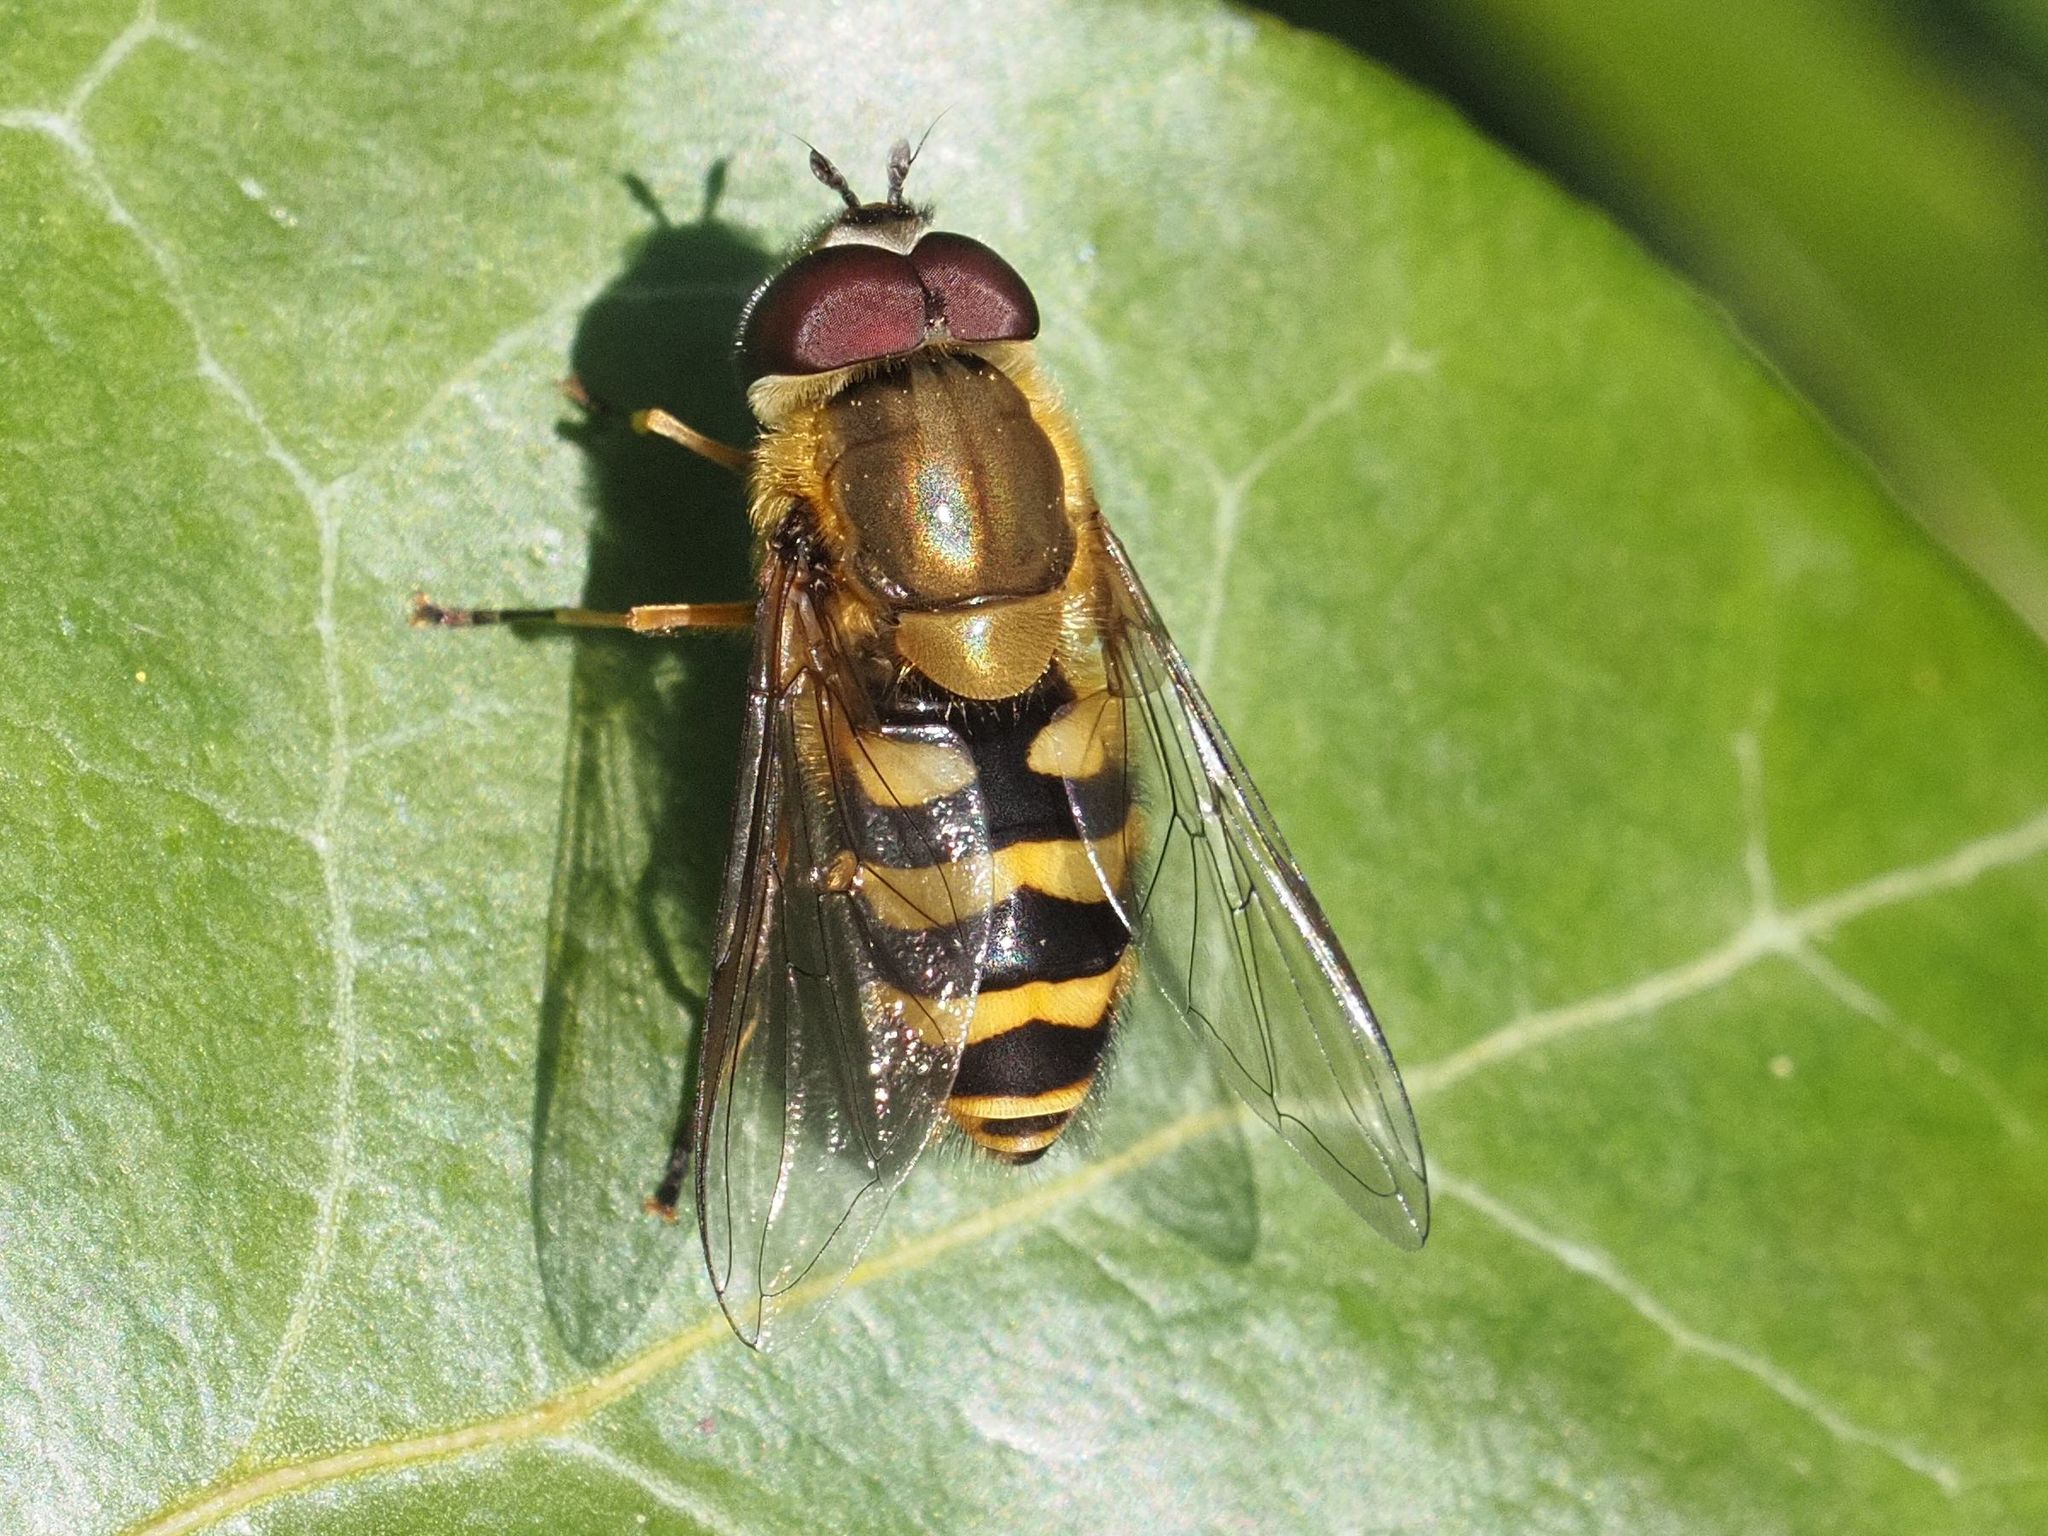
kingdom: Animalia
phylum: Arthropoda
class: Insecta
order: Diptera
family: Syrphidae
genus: Syrphus
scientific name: Syrphus torvus
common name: Hairy-eyed flower fly
